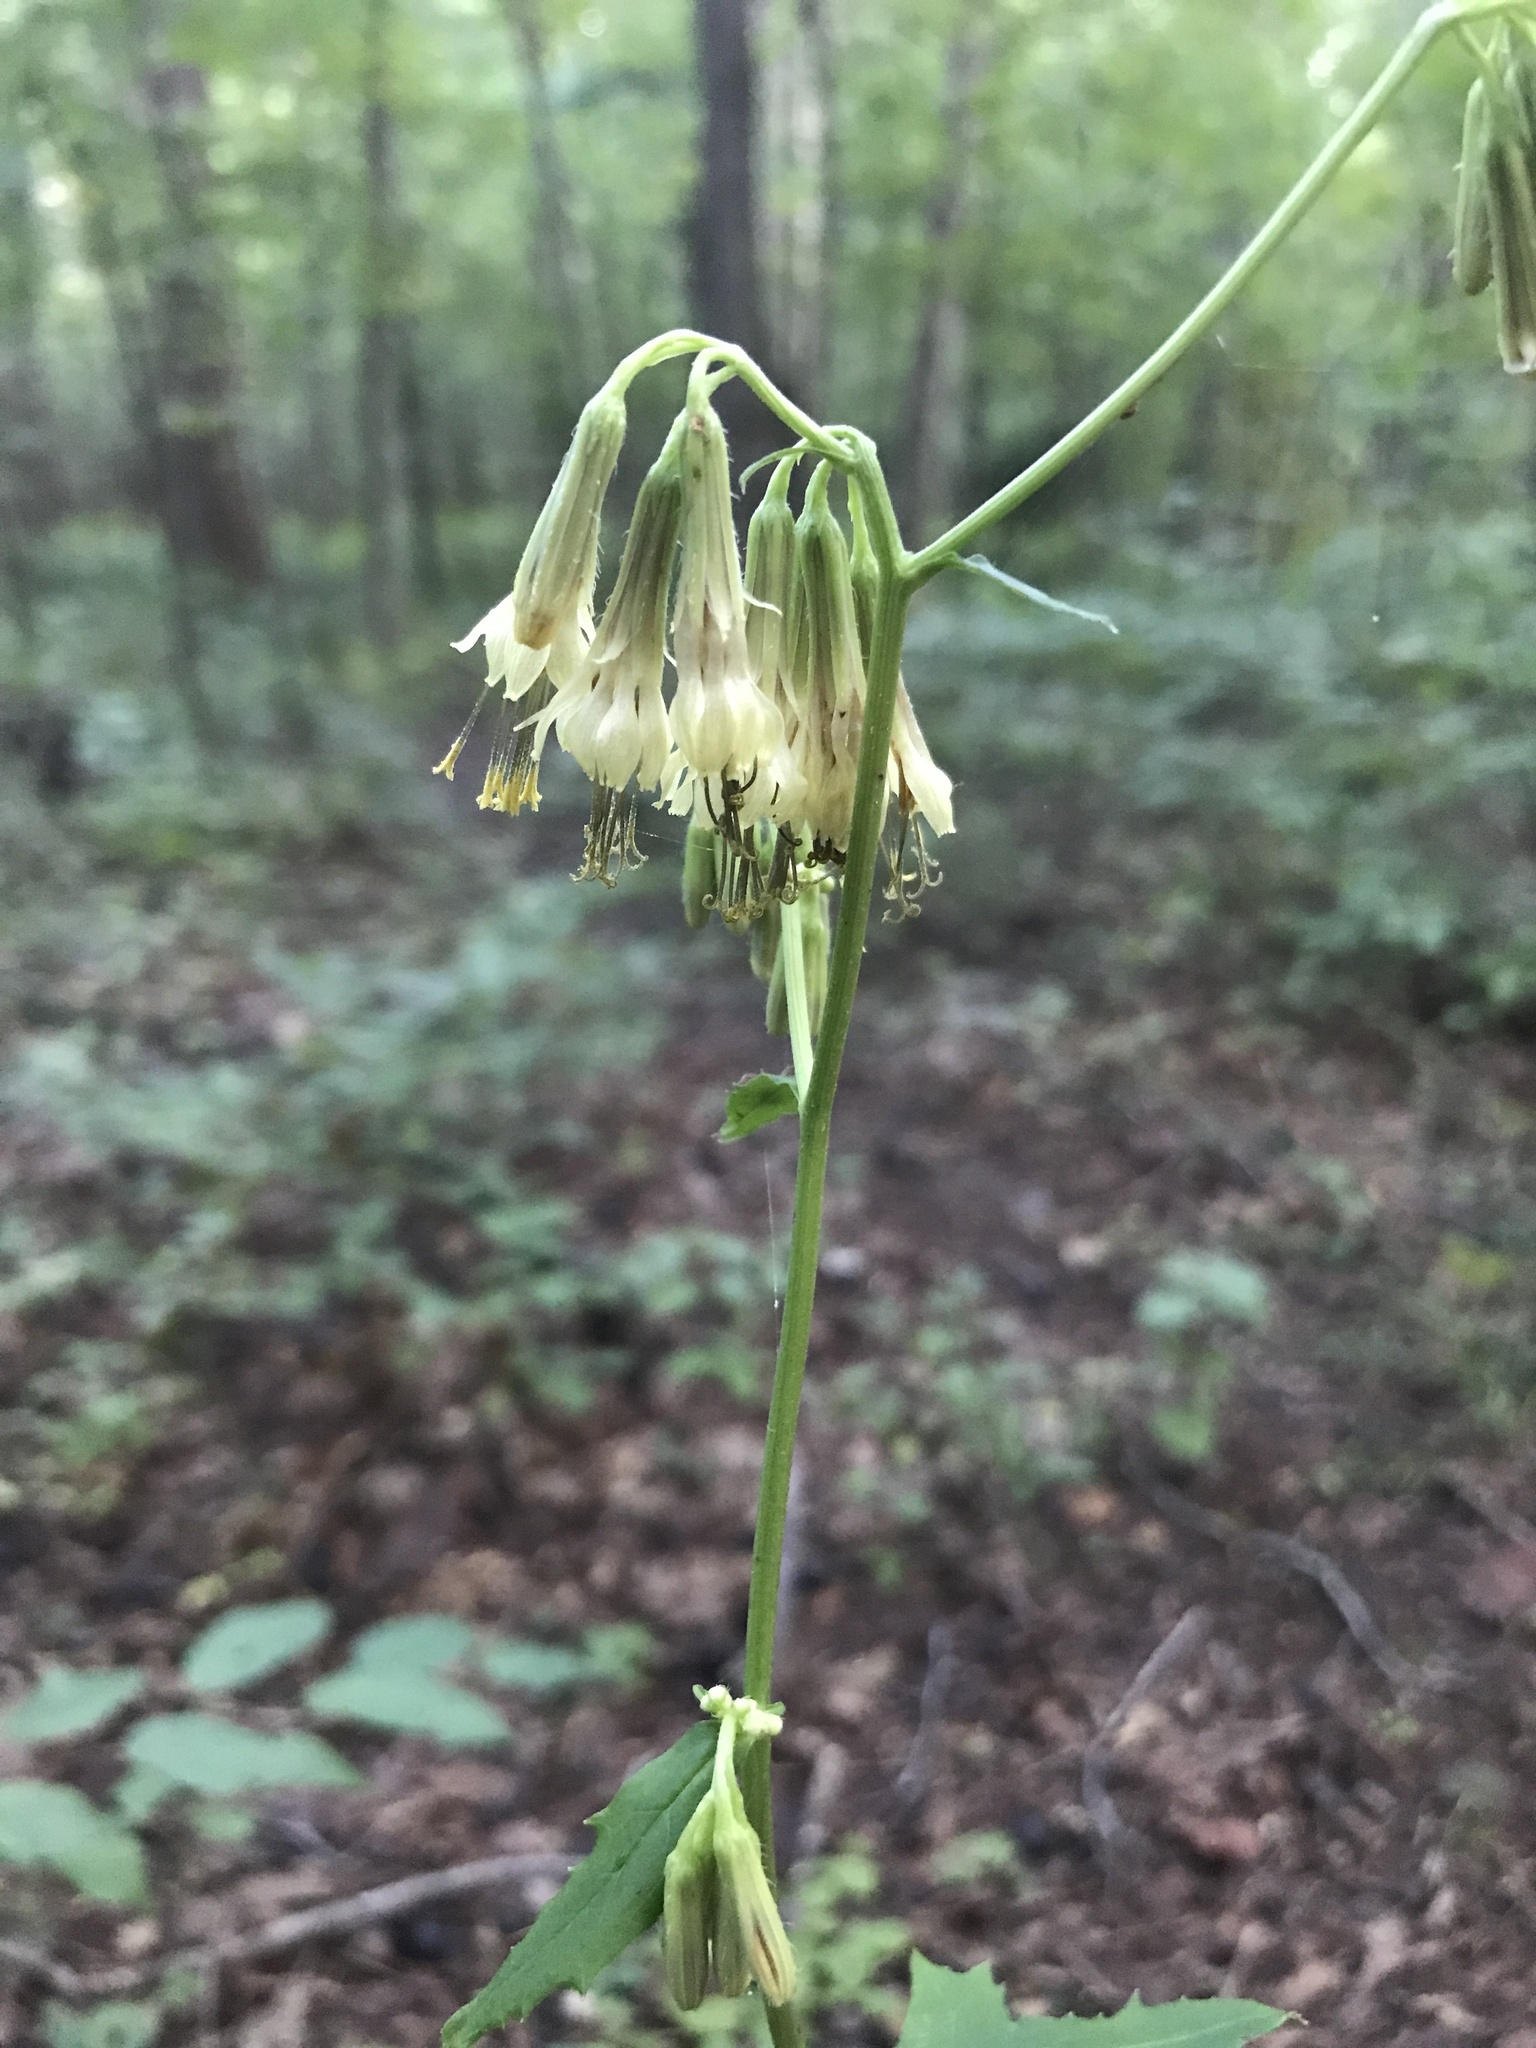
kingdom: Plantae
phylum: Tracheophyta
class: Magnoliopsida
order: Asterales
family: Asteraceae
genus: Nabalus
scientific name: Nabalus serpentarius
